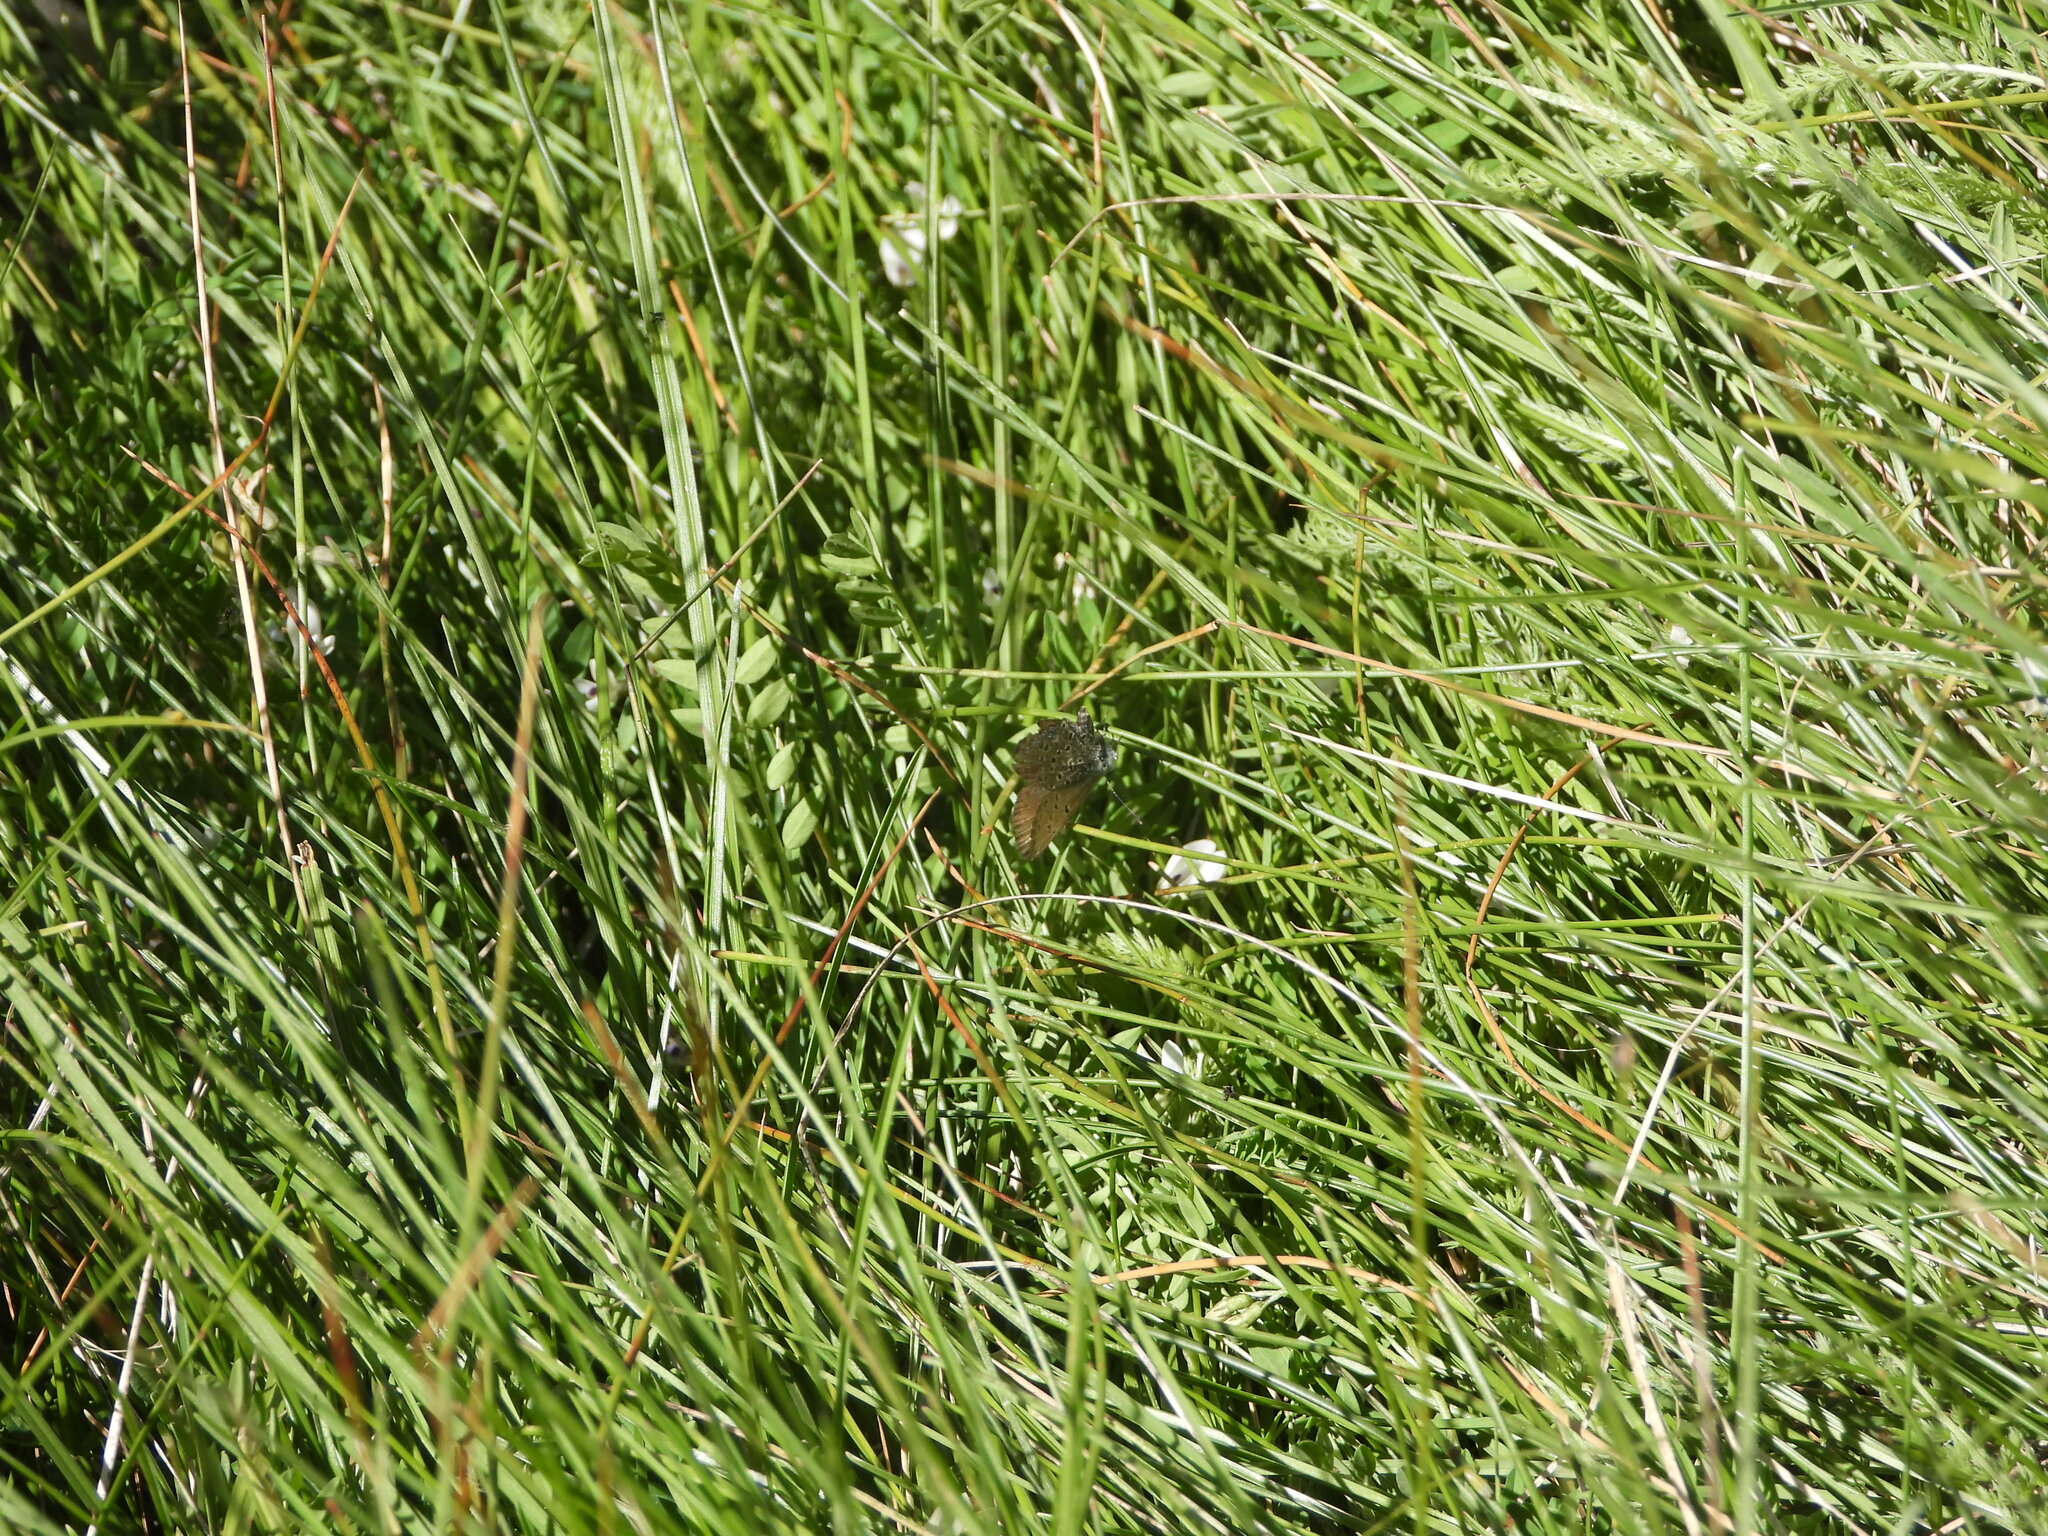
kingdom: Animalia
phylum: Arthropoda
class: Insecta
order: Lepidoptera
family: Lycaenidae
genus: Icaricia
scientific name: Icaricia saepiolus
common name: Greenish blue
